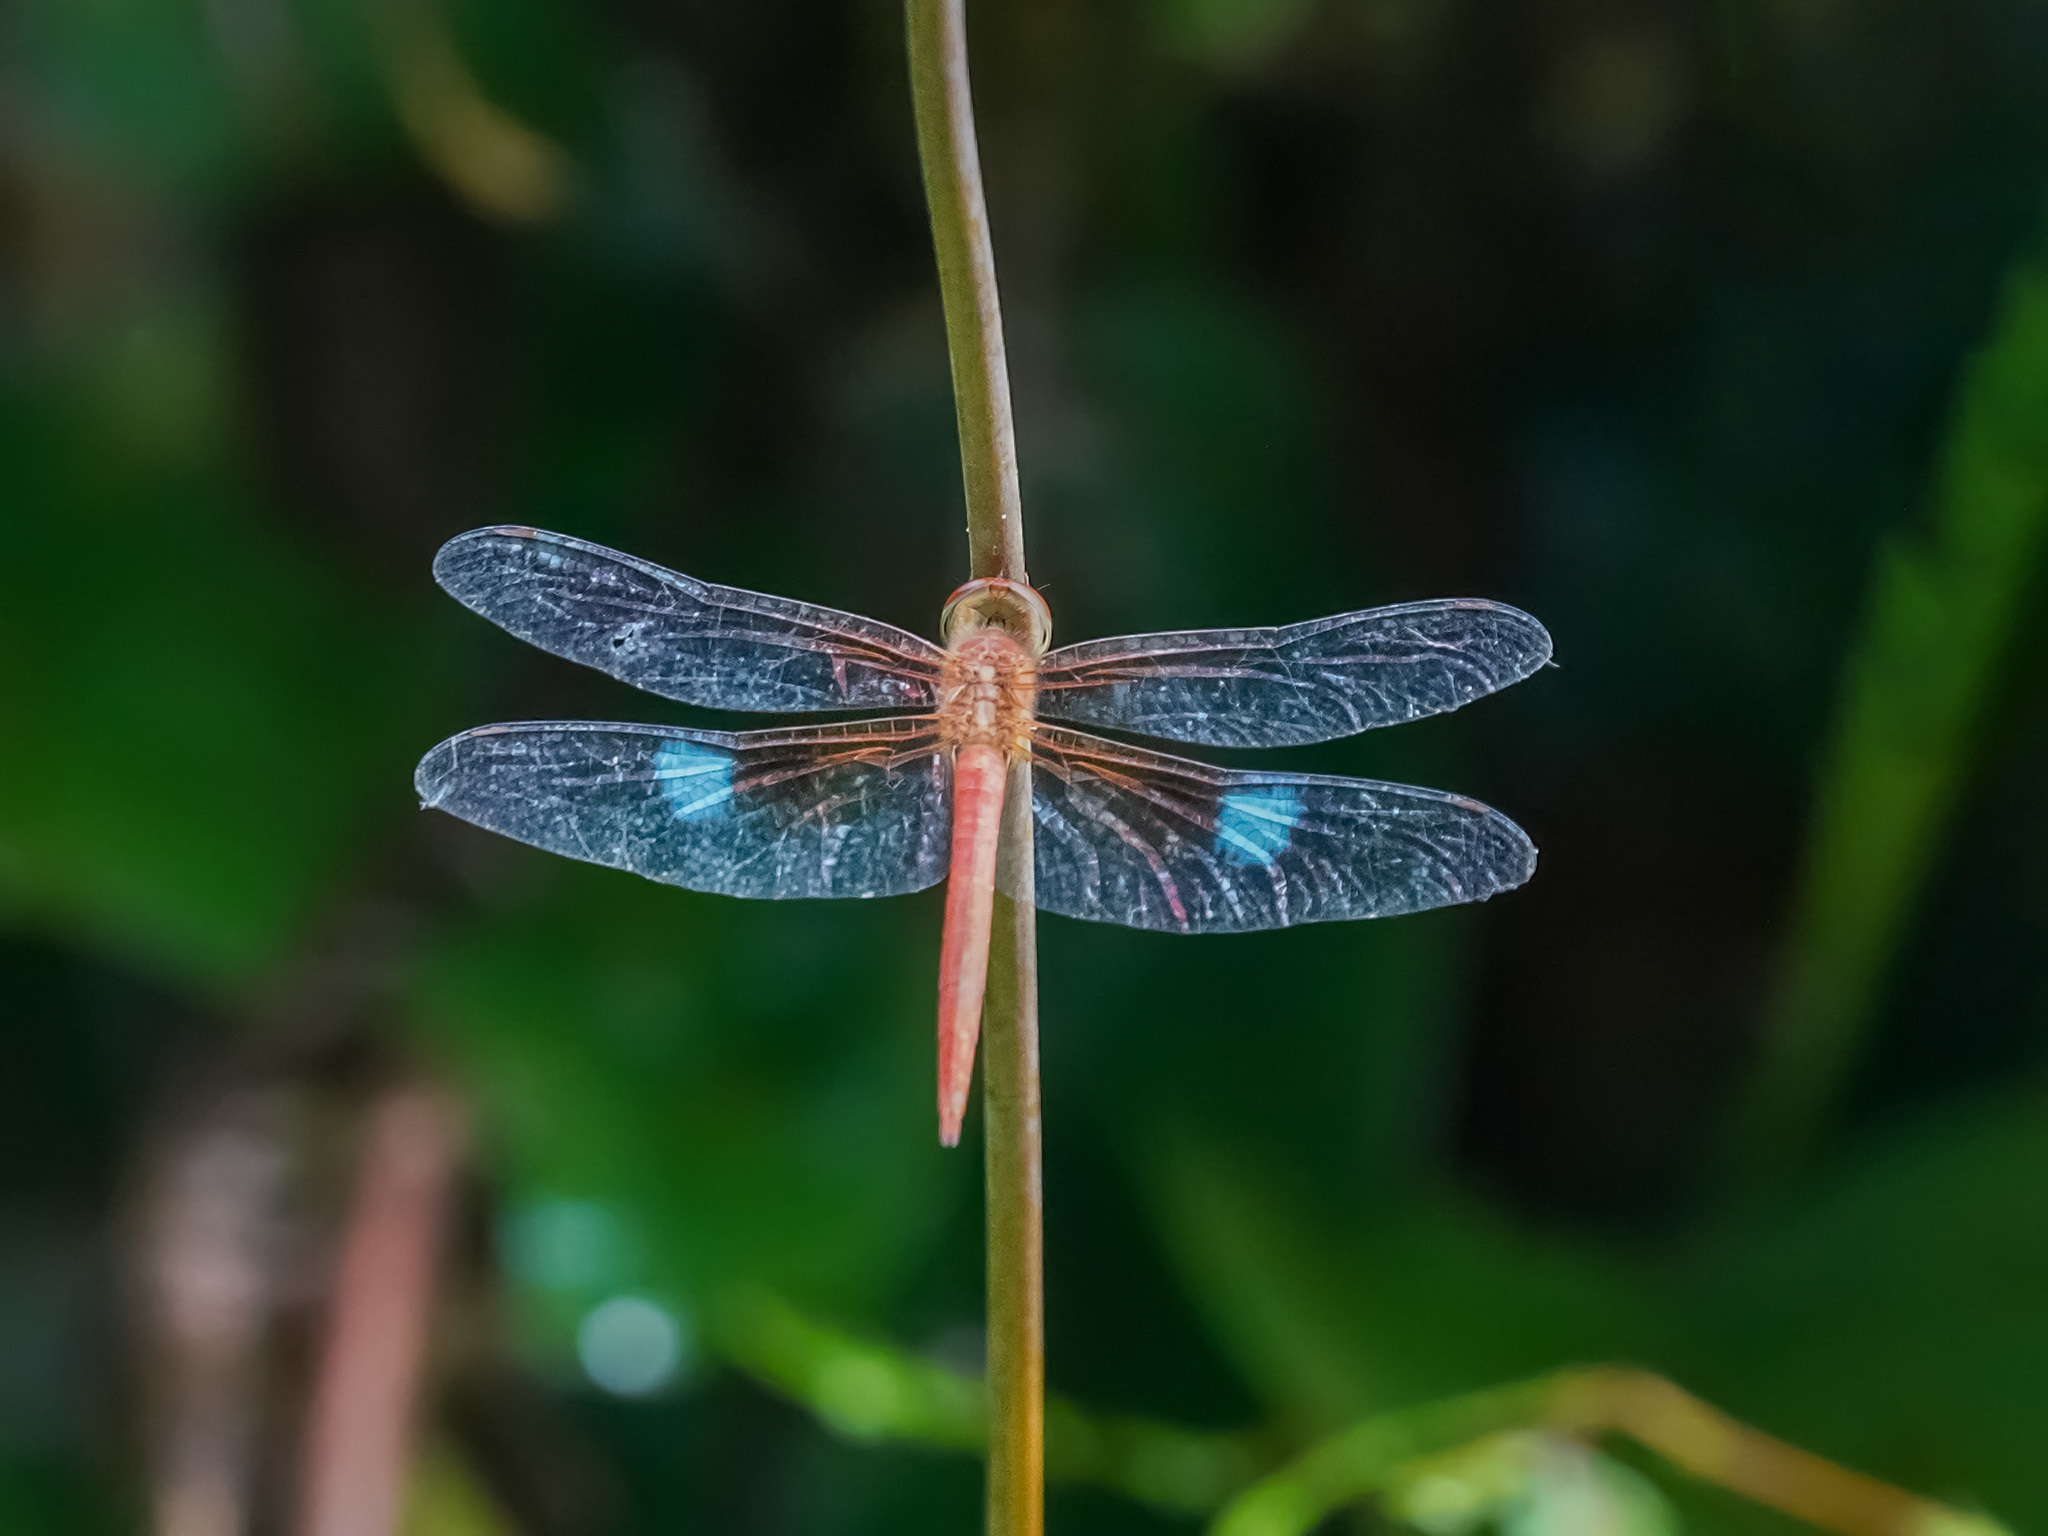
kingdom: Animalia
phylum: Arthropoda
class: Insecta
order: Odonata
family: Libellulidae
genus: Tholymis
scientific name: Tholymis tillarga
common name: Coral-tailed cloud wing
